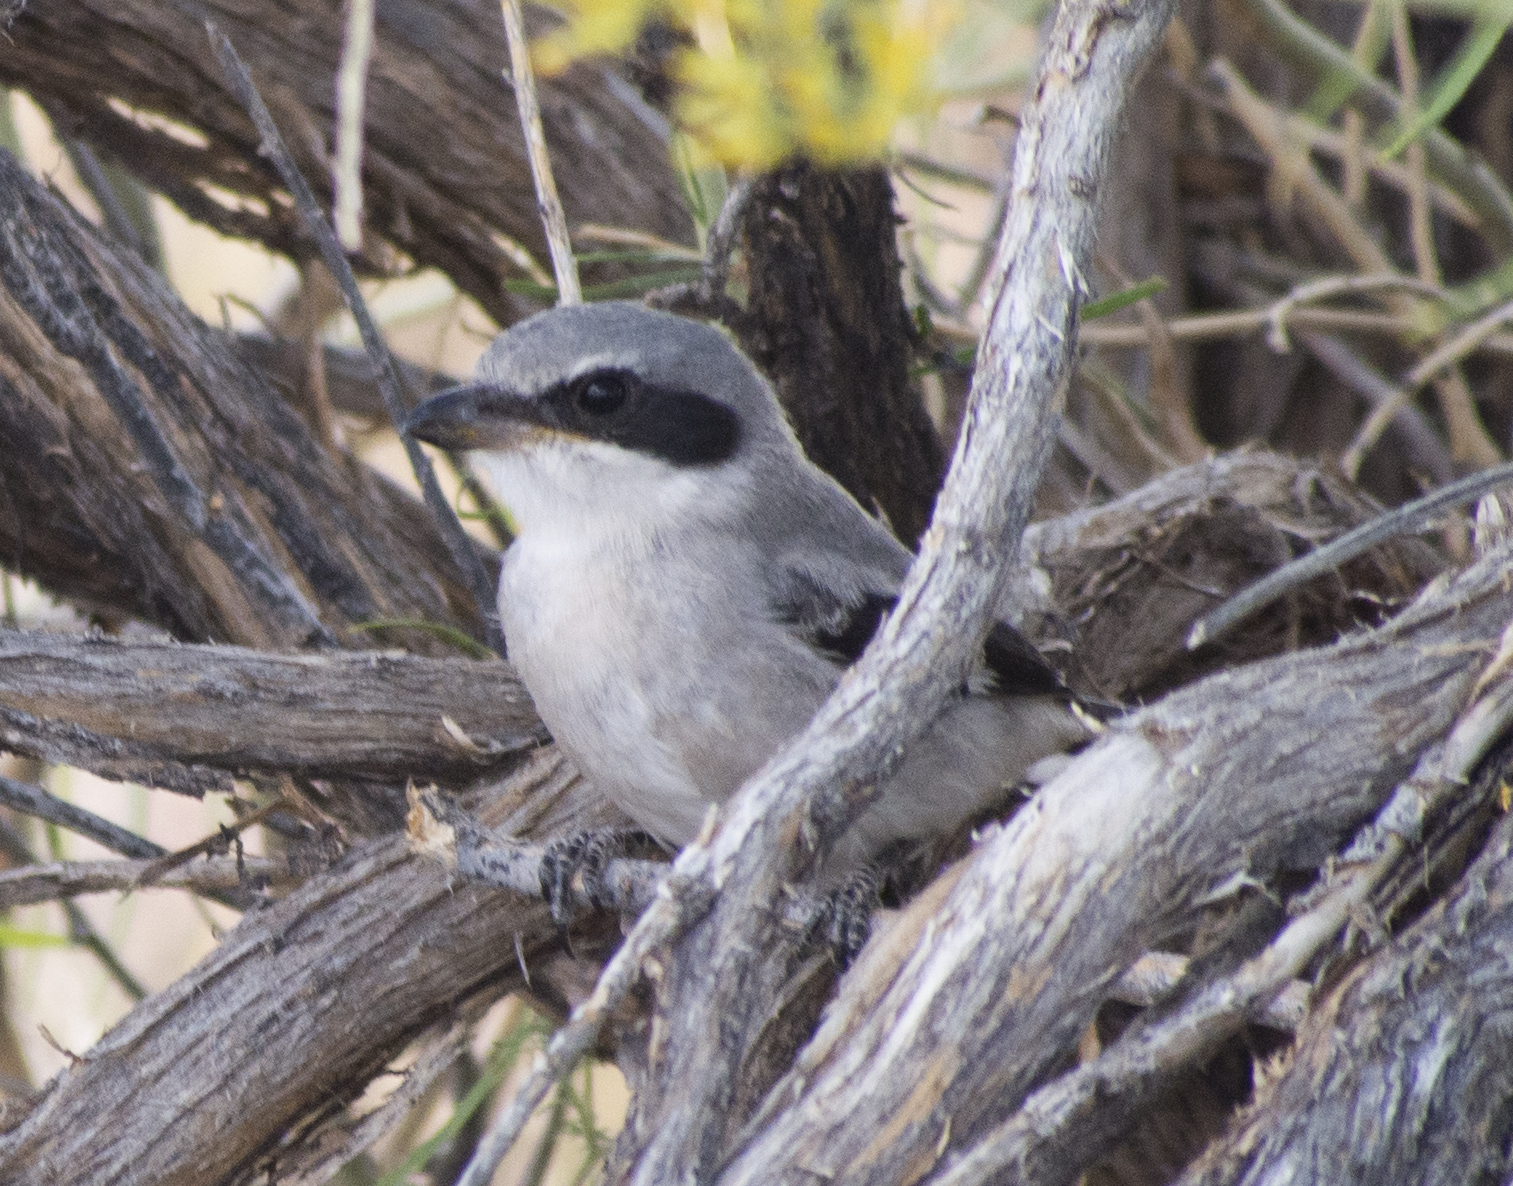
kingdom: Animalia
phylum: Chordata
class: Aves
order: Passeriformes
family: Laniidae
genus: Lanius
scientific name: Lanius ludovicianus
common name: Loggerhead shrike
